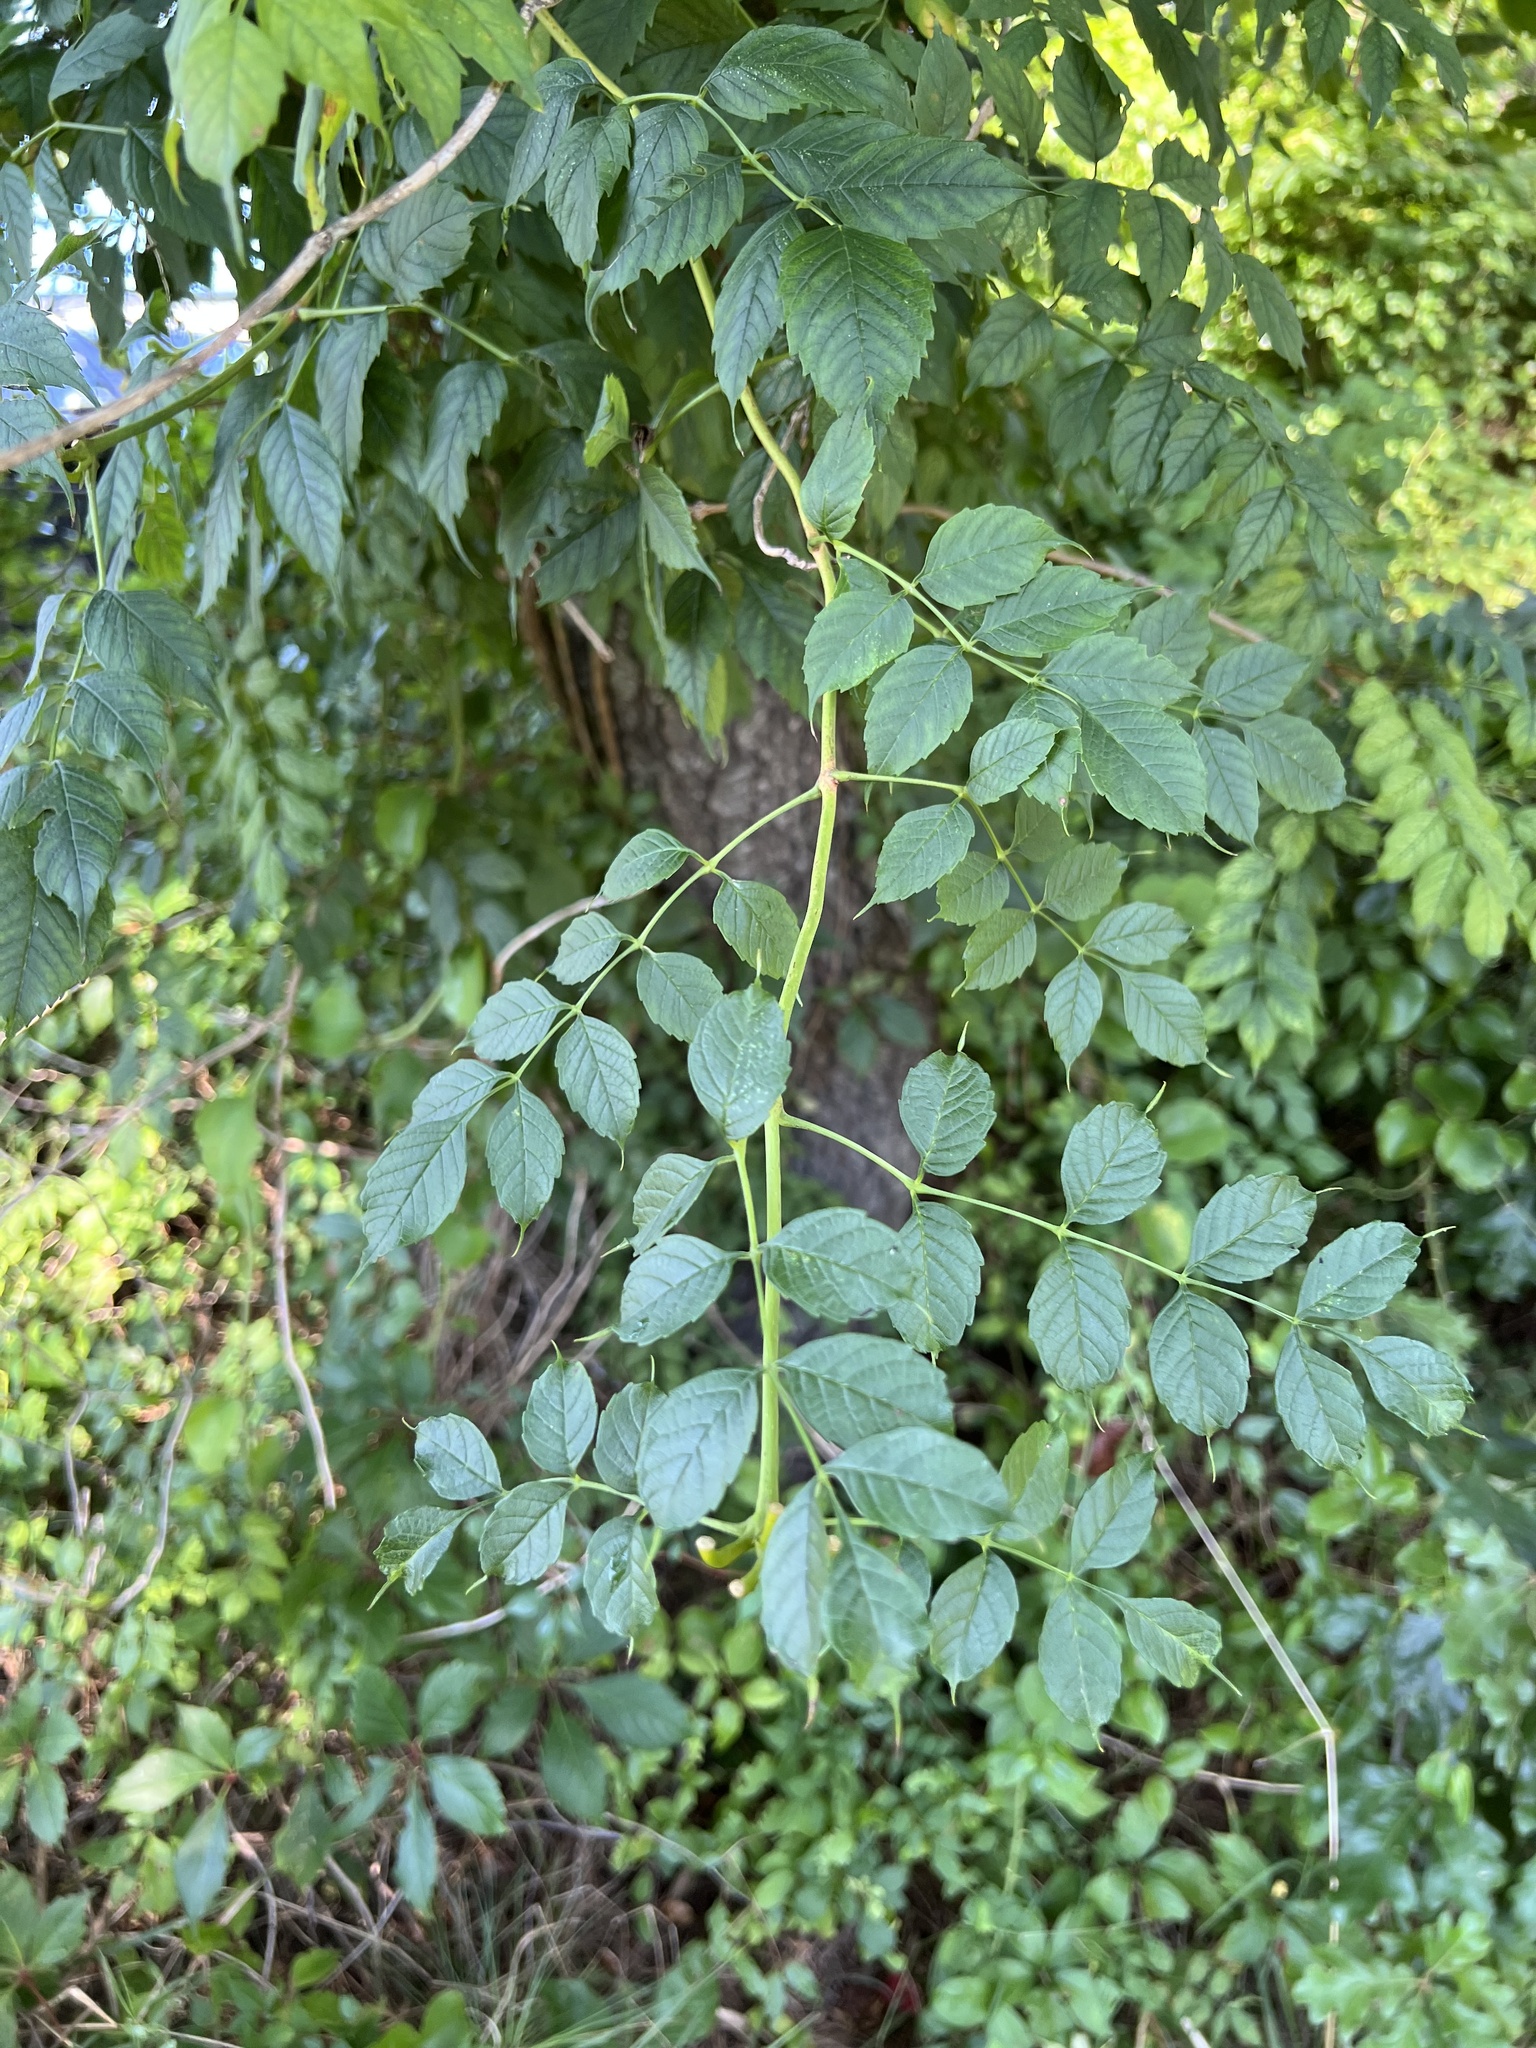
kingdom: Plantae
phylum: Tracheophyta
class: Magnoliopsida
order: Lamiales
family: Bignoniaceae
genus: Campsis
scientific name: Campsis radicans
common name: Trumpet-creeper
